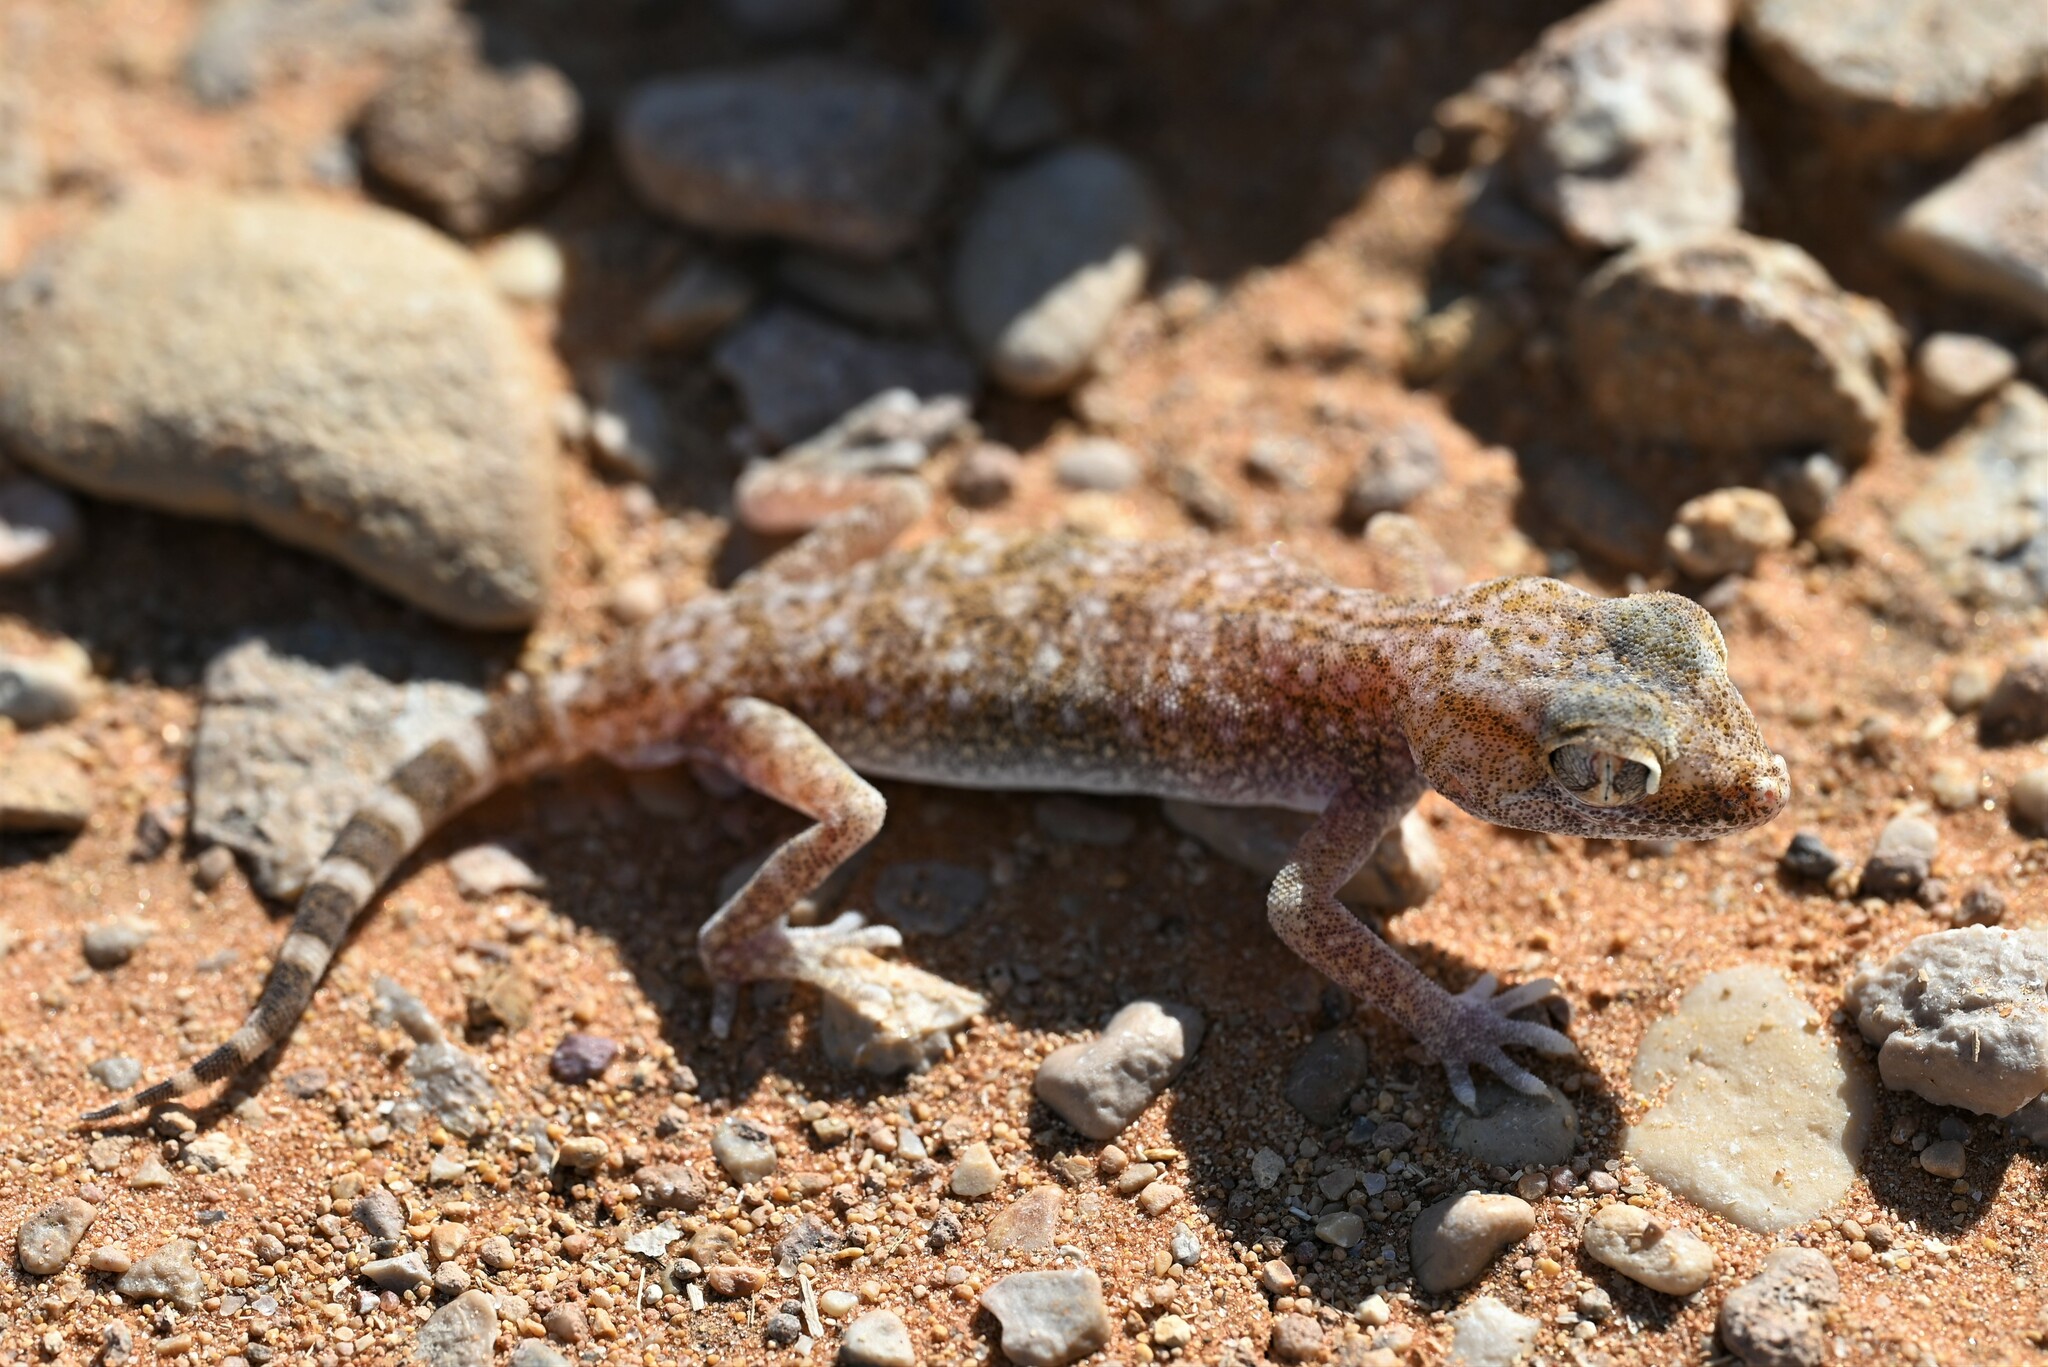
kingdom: Animalia
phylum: Chordata
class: Squamata
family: Gekkonidae
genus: Stenodactylus
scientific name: Stenodactylus slevini
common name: Slevin's sand gecko
